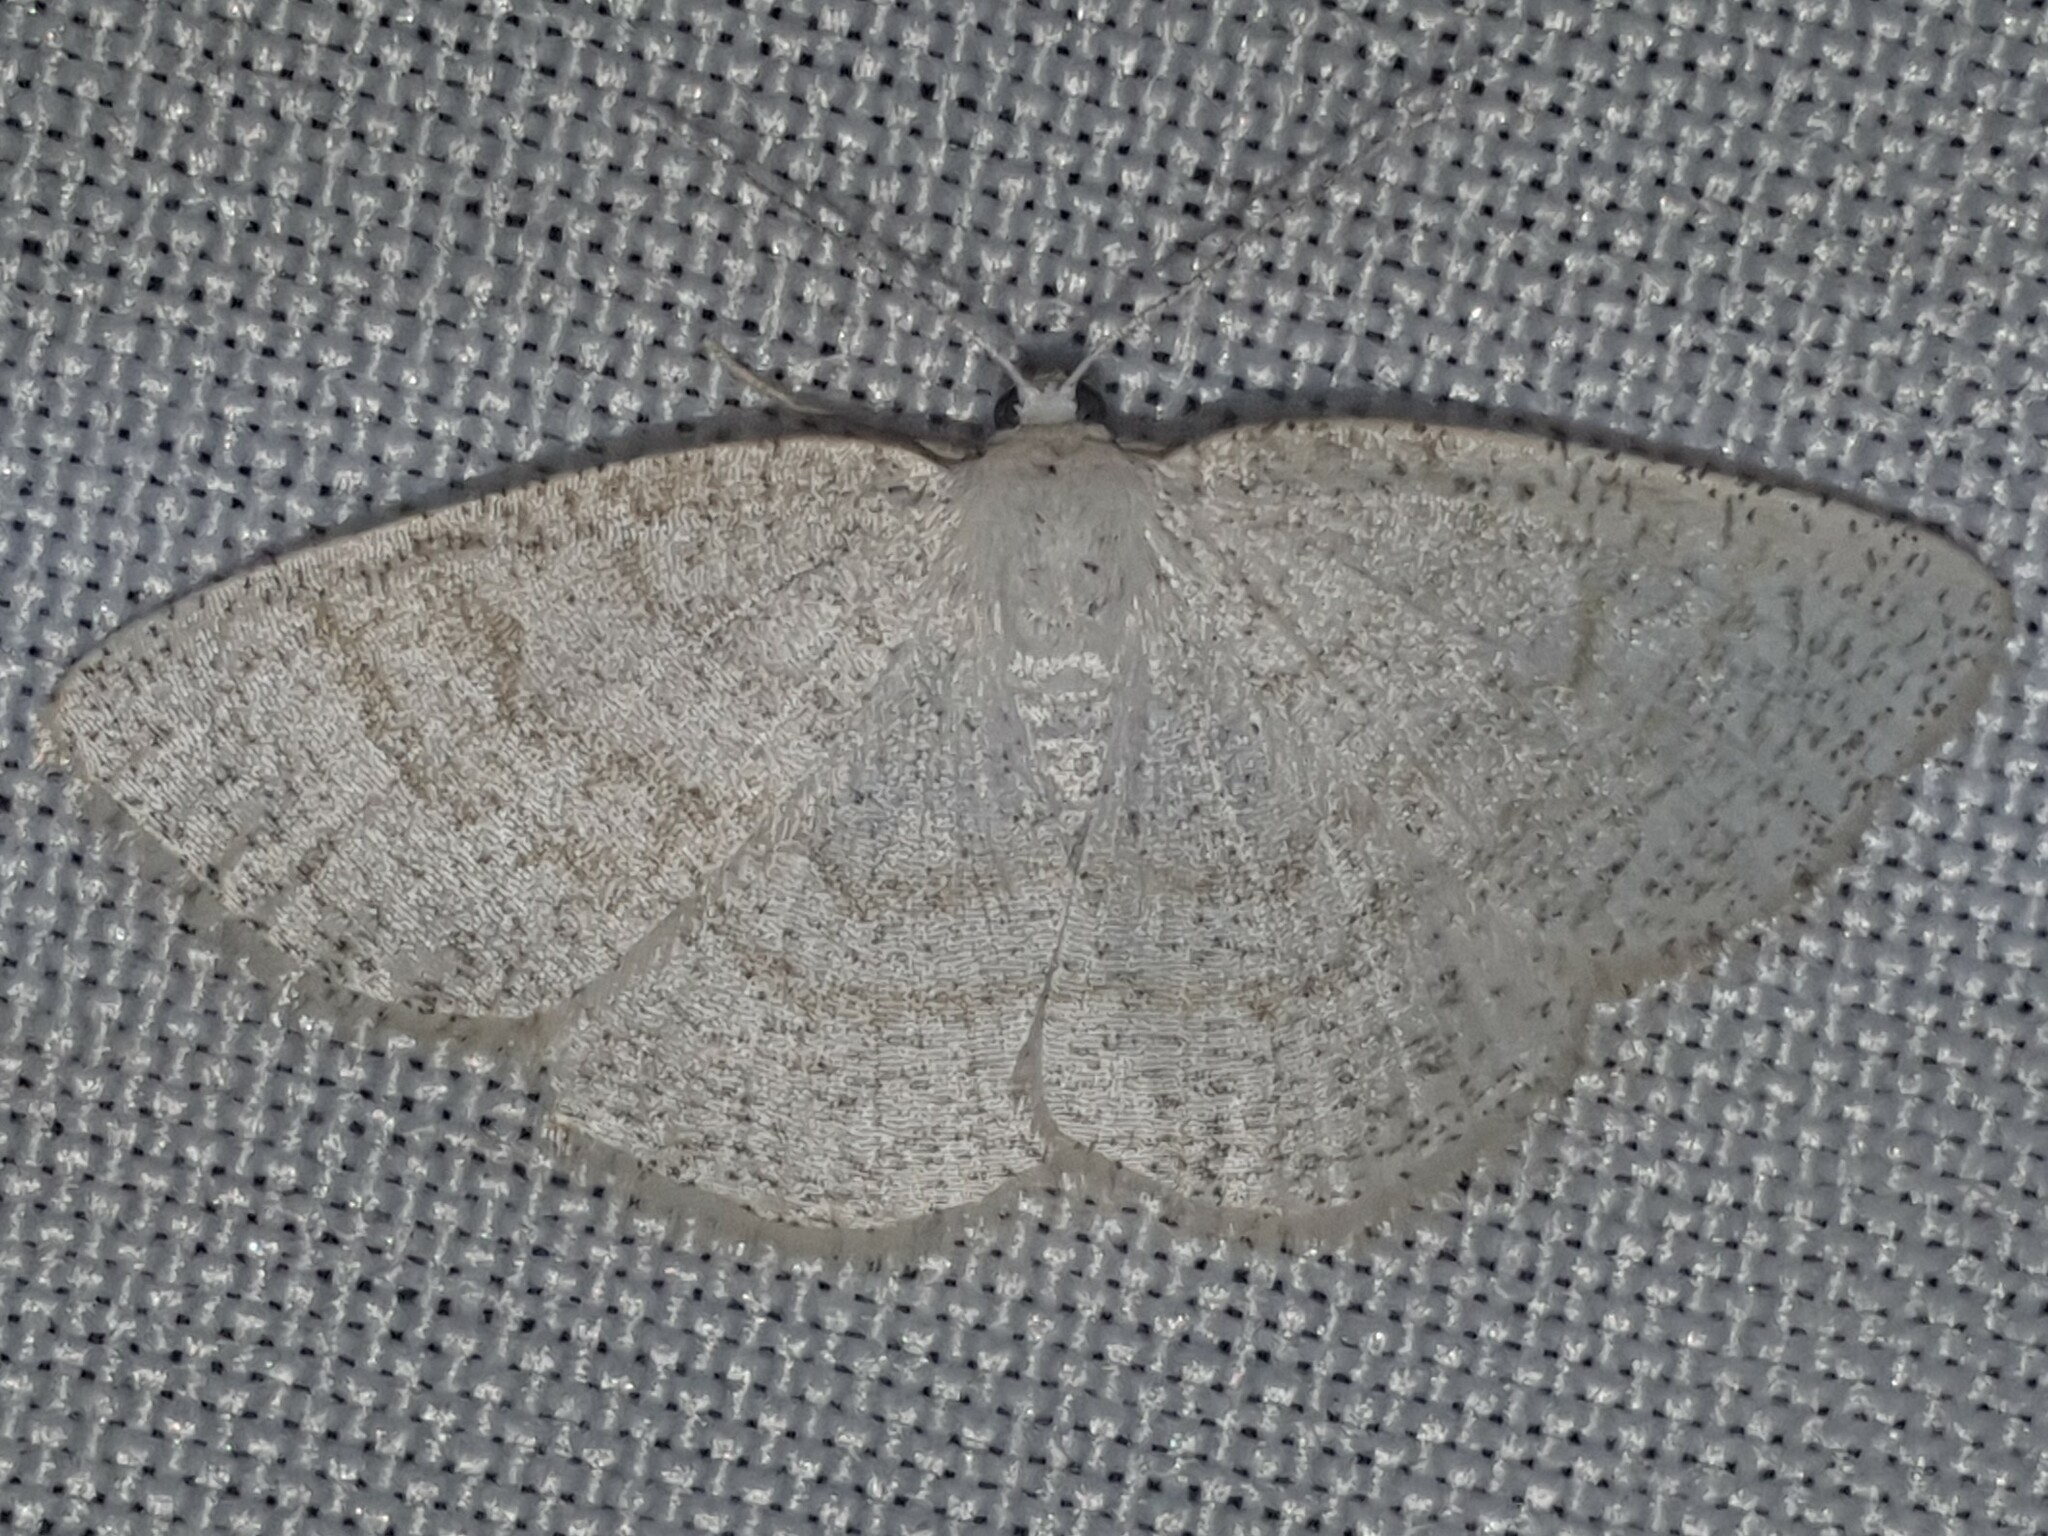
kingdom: Animalia
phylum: Arthropoda
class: Insecta
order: Lepidoptera
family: Geometridae
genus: Cabera
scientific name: Cabera exanthemata
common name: Common wave
